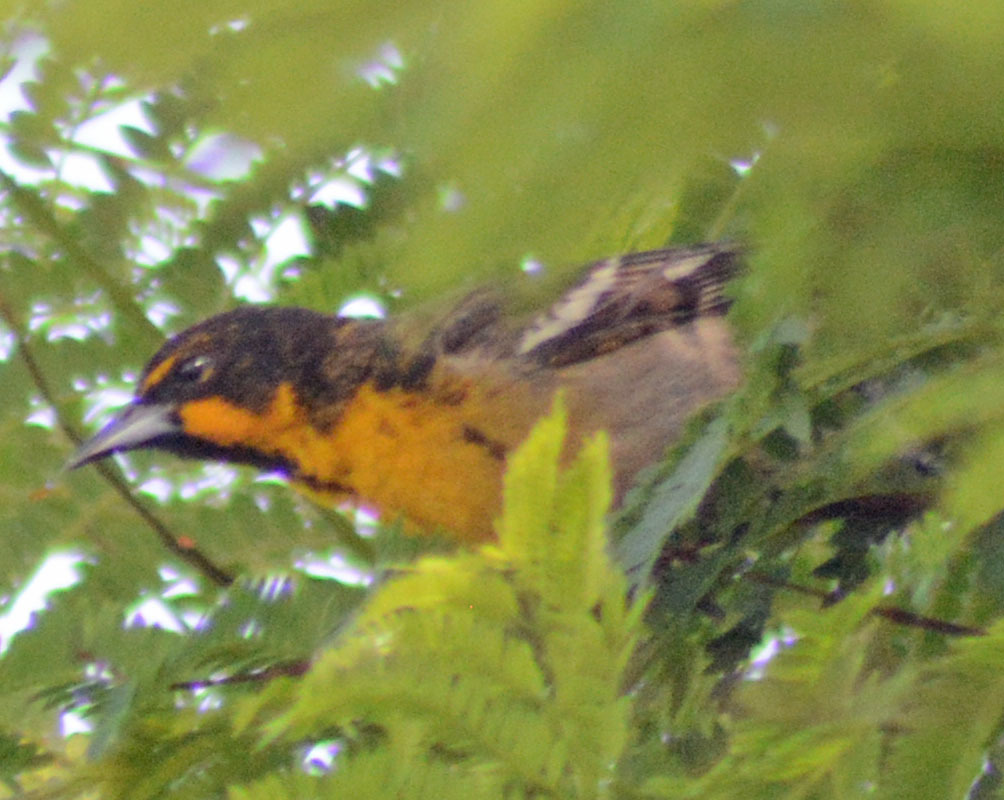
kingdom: Animalia
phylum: Chordata
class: Aves
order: Passeriformes
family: Icteridae
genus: Icterus
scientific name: Icterus abeillei
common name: Black-backed oriole
